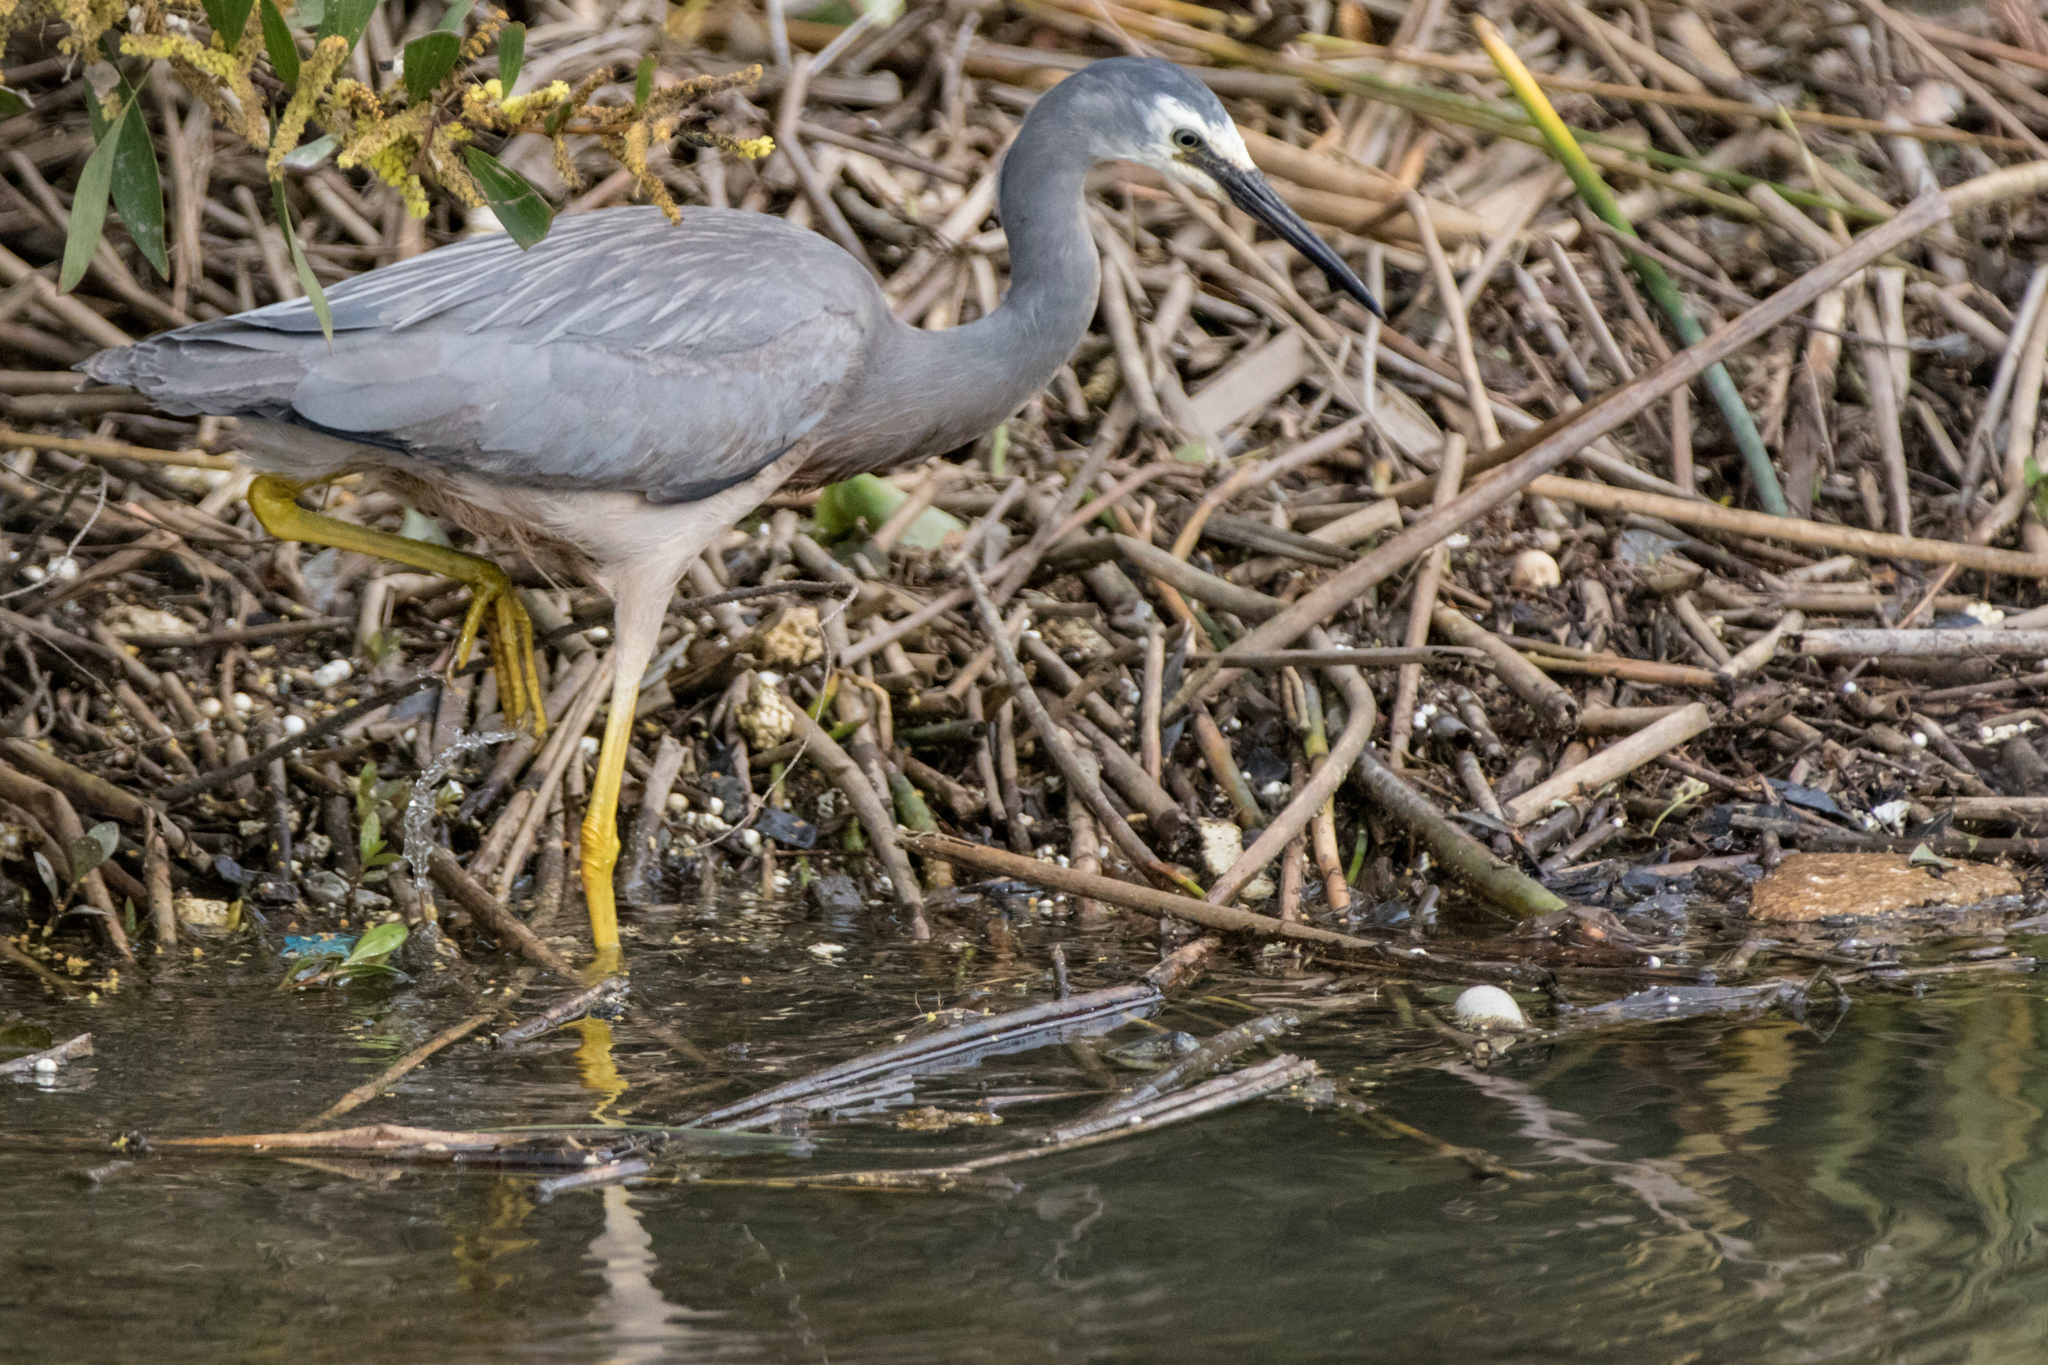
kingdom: Animalia
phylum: Chordata
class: Aves
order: Pelecaniformes
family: Ardeidae
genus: Egretta
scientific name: Egretta novaehollandiae
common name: White-faced heron
